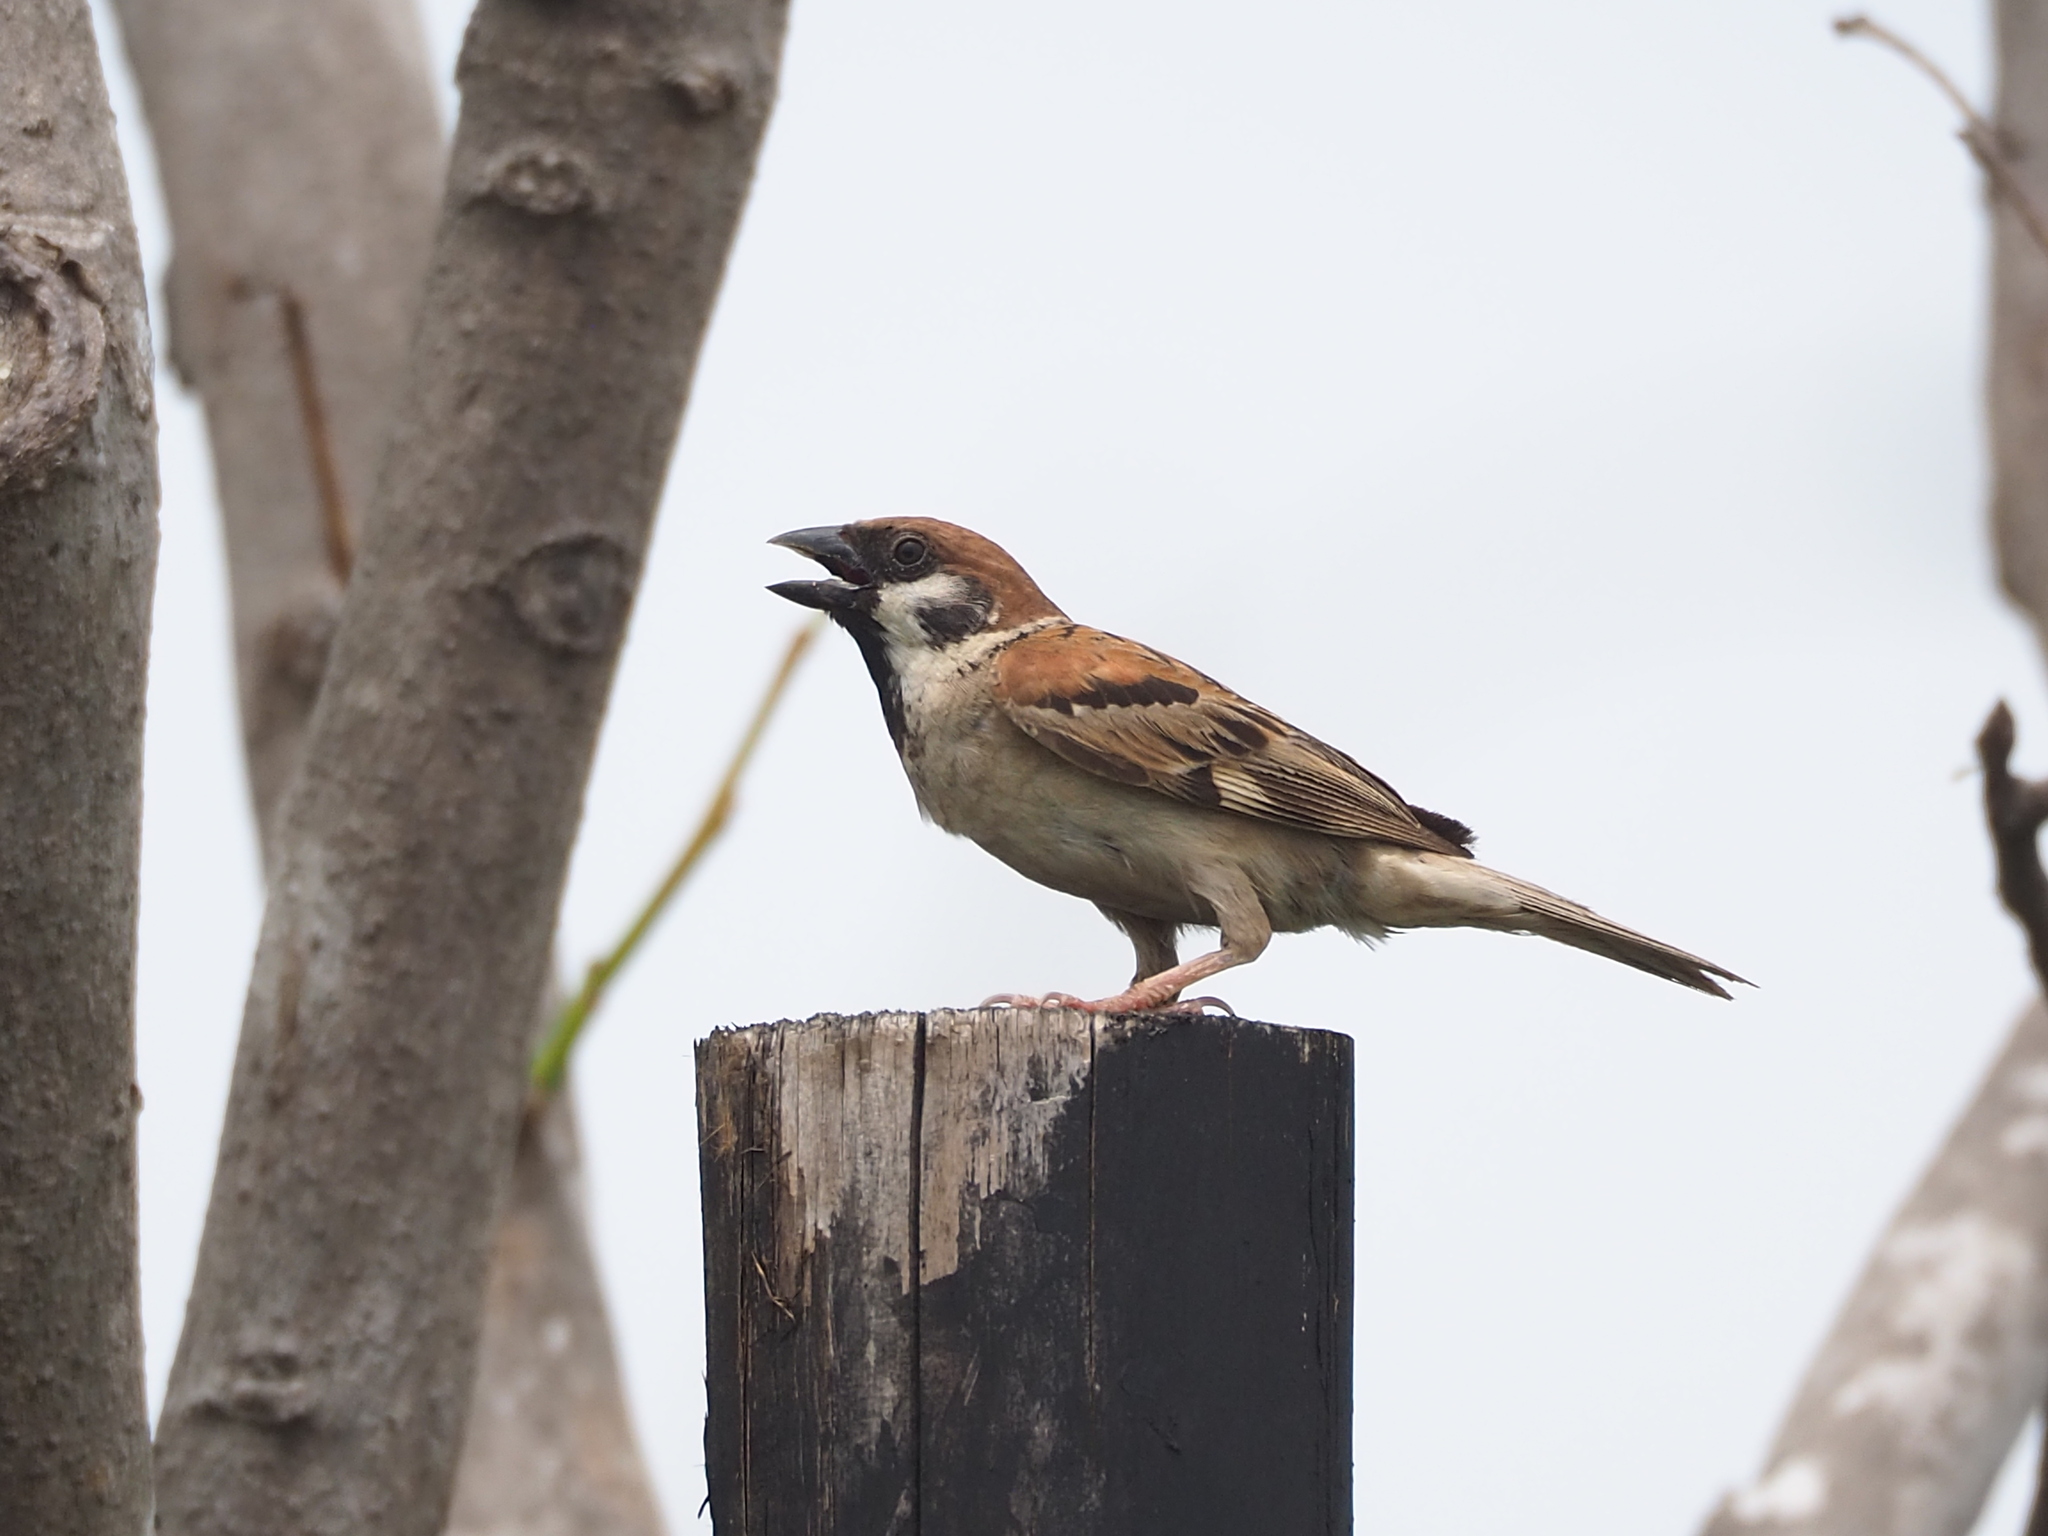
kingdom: Animalia
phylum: Chordata
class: Aves
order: Passeriformes
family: Passeridae
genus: Passer
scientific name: Passer montanus
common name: Eurasian tree sparrow
